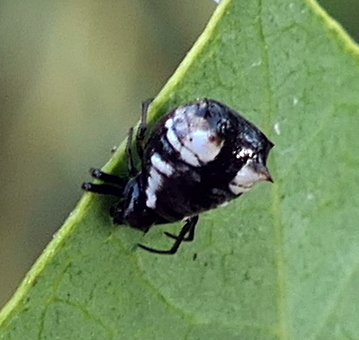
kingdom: Animalia
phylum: Arthropoda
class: Arachnida
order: Araneae
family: Araneidae
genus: Micrathena
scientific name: Micrathena patruelis
